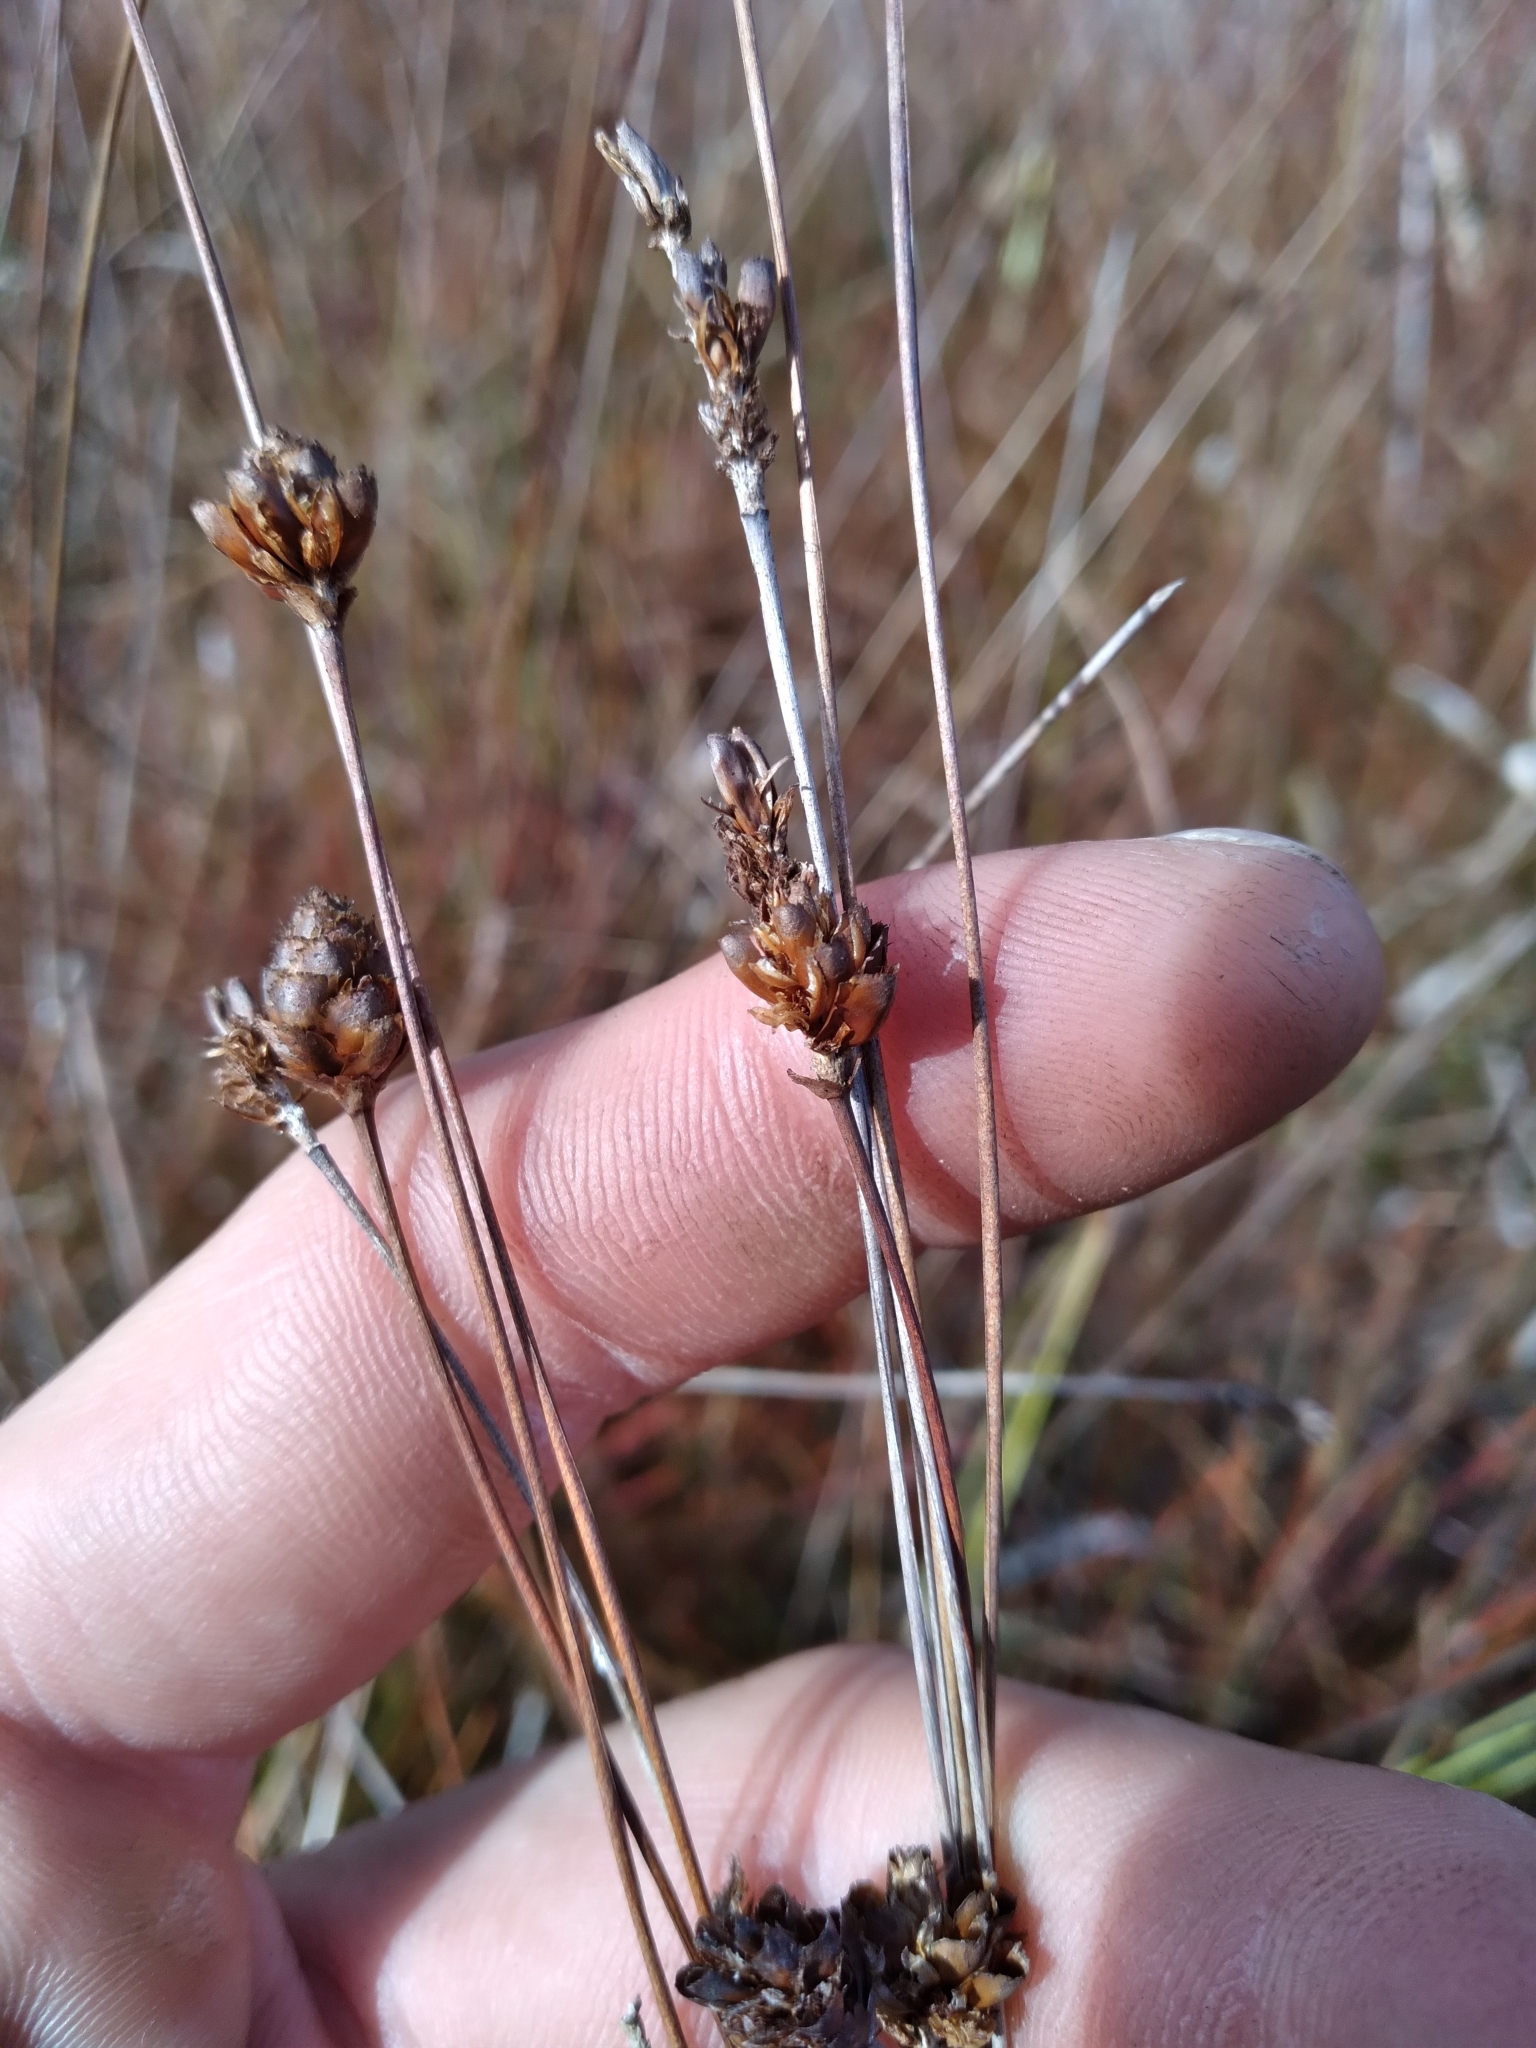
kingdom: Plantae
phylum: Tracheophyta
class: Liliopsida
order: Poales
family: Xyridaceae
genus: Xyris
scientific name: Xyris stenotera
